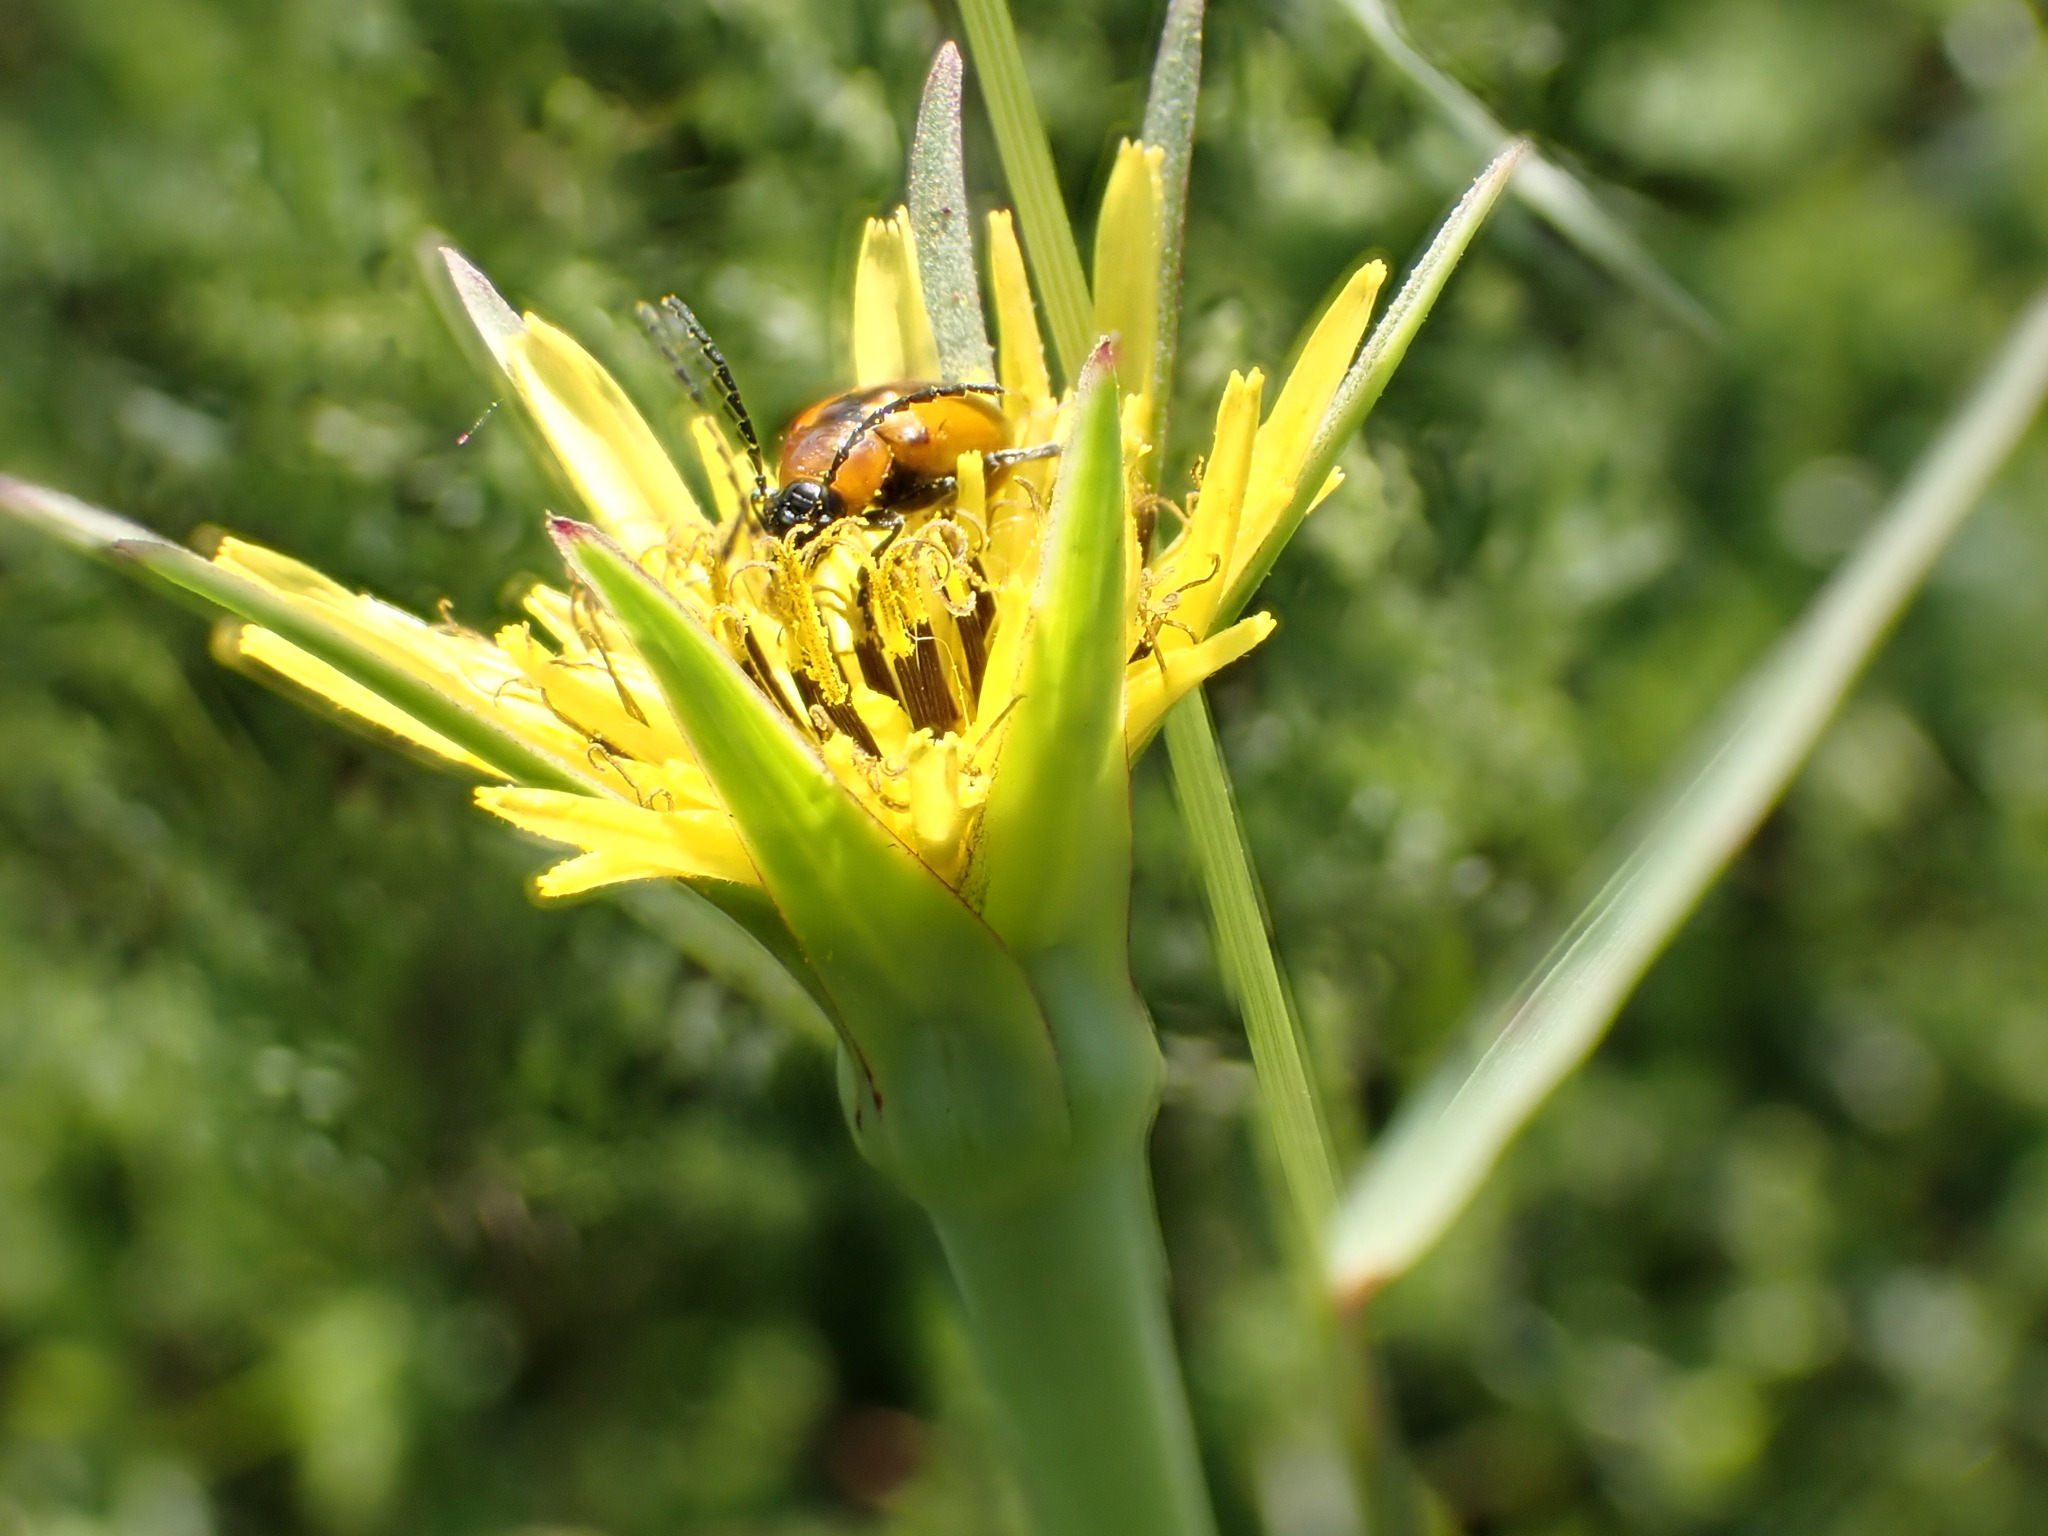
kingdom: Plantae
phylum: Tracheophyta
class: Magnoliopsida
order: Asterales
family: Asteraceae
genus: Tragopogon
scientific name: Tragopogon dubius
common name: Yellow salsify
